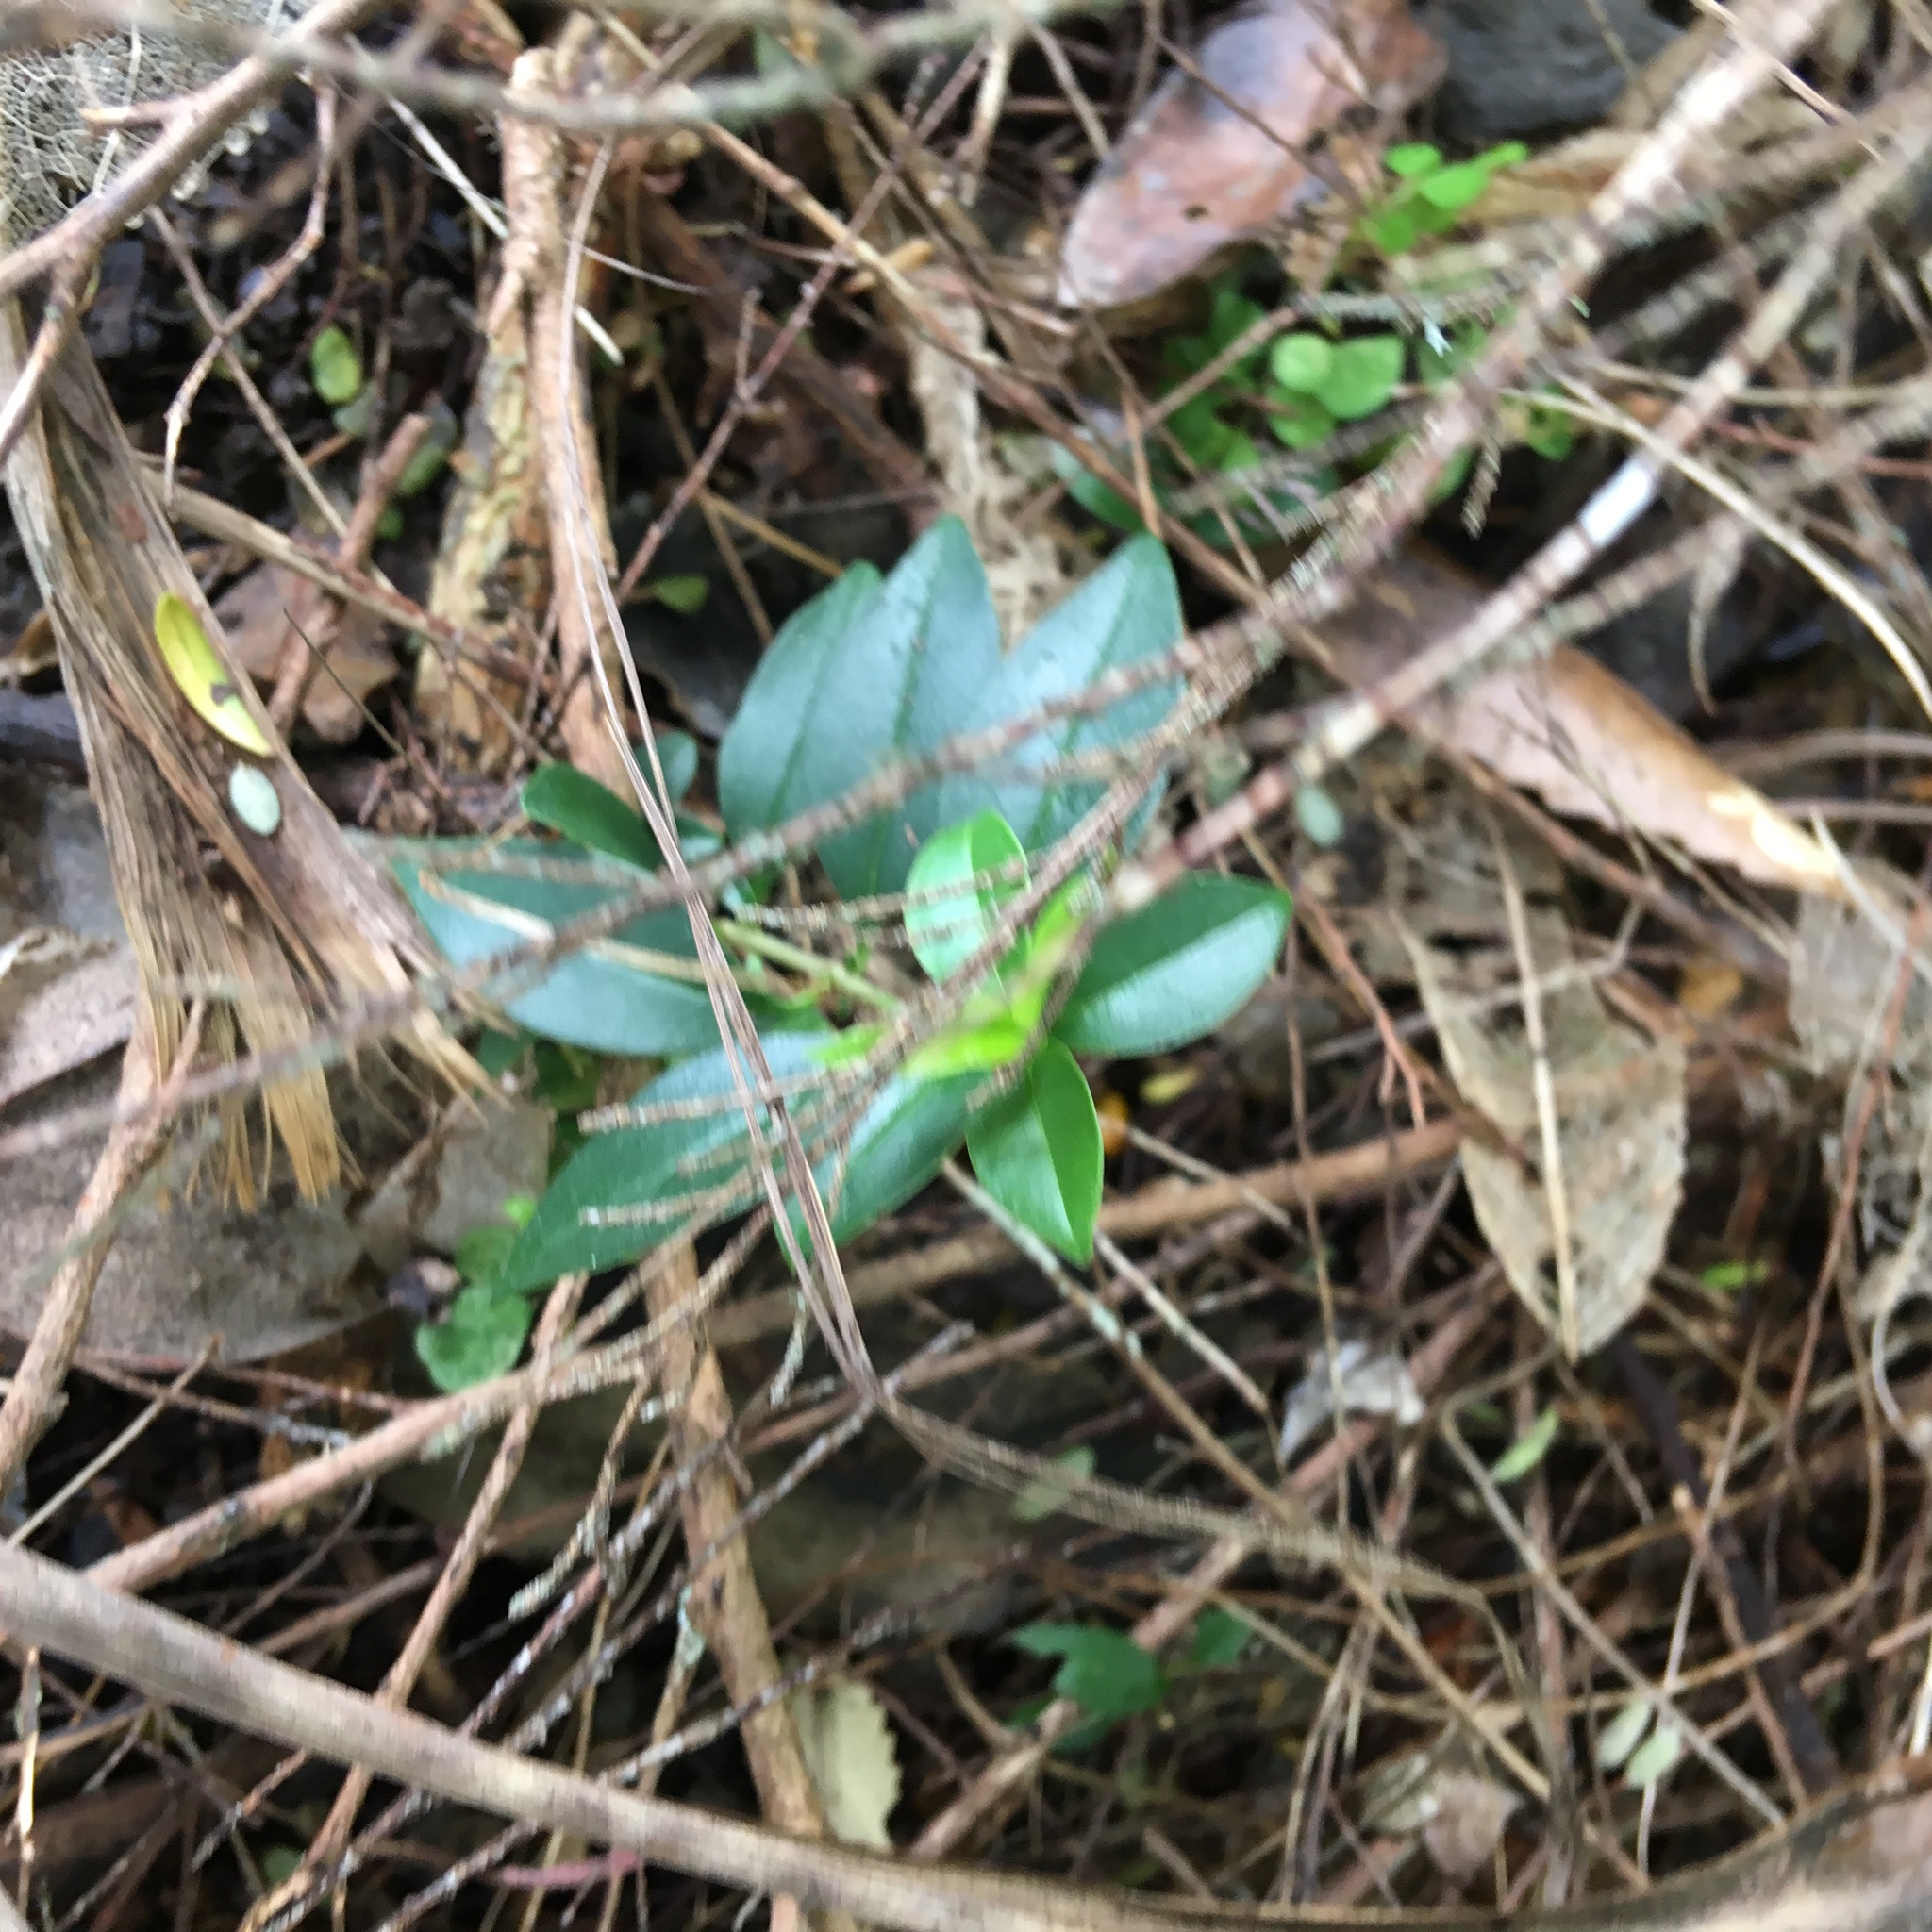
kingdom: Plantae
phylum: Tracheophyta
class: Magnoliopsida
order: Lamiales
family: Oleaceae
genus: Ligustrum
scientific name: Ligustrum lucidum
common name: Glossy privet
